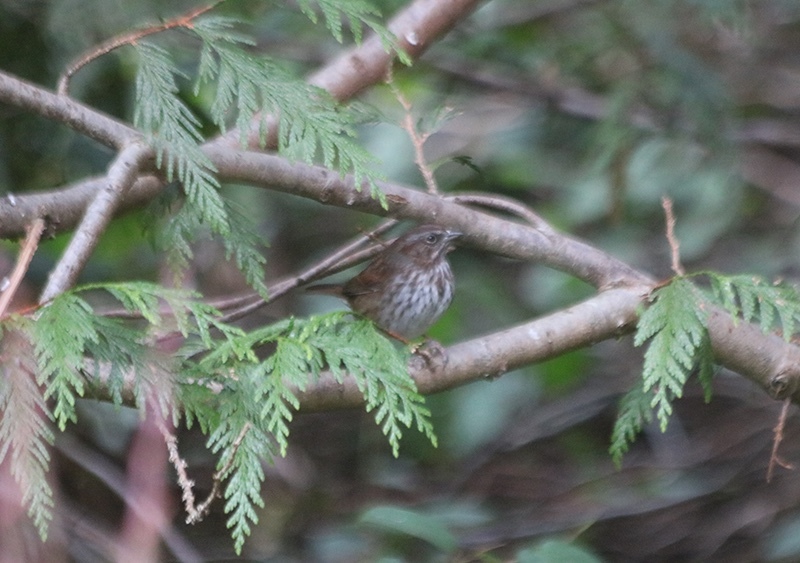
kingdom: Animalia
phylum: Chordata
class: Aves
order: Passeriformes
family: Passerellidae
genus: Melospiza
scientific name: Melospiza melodia
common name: Song sparrow
